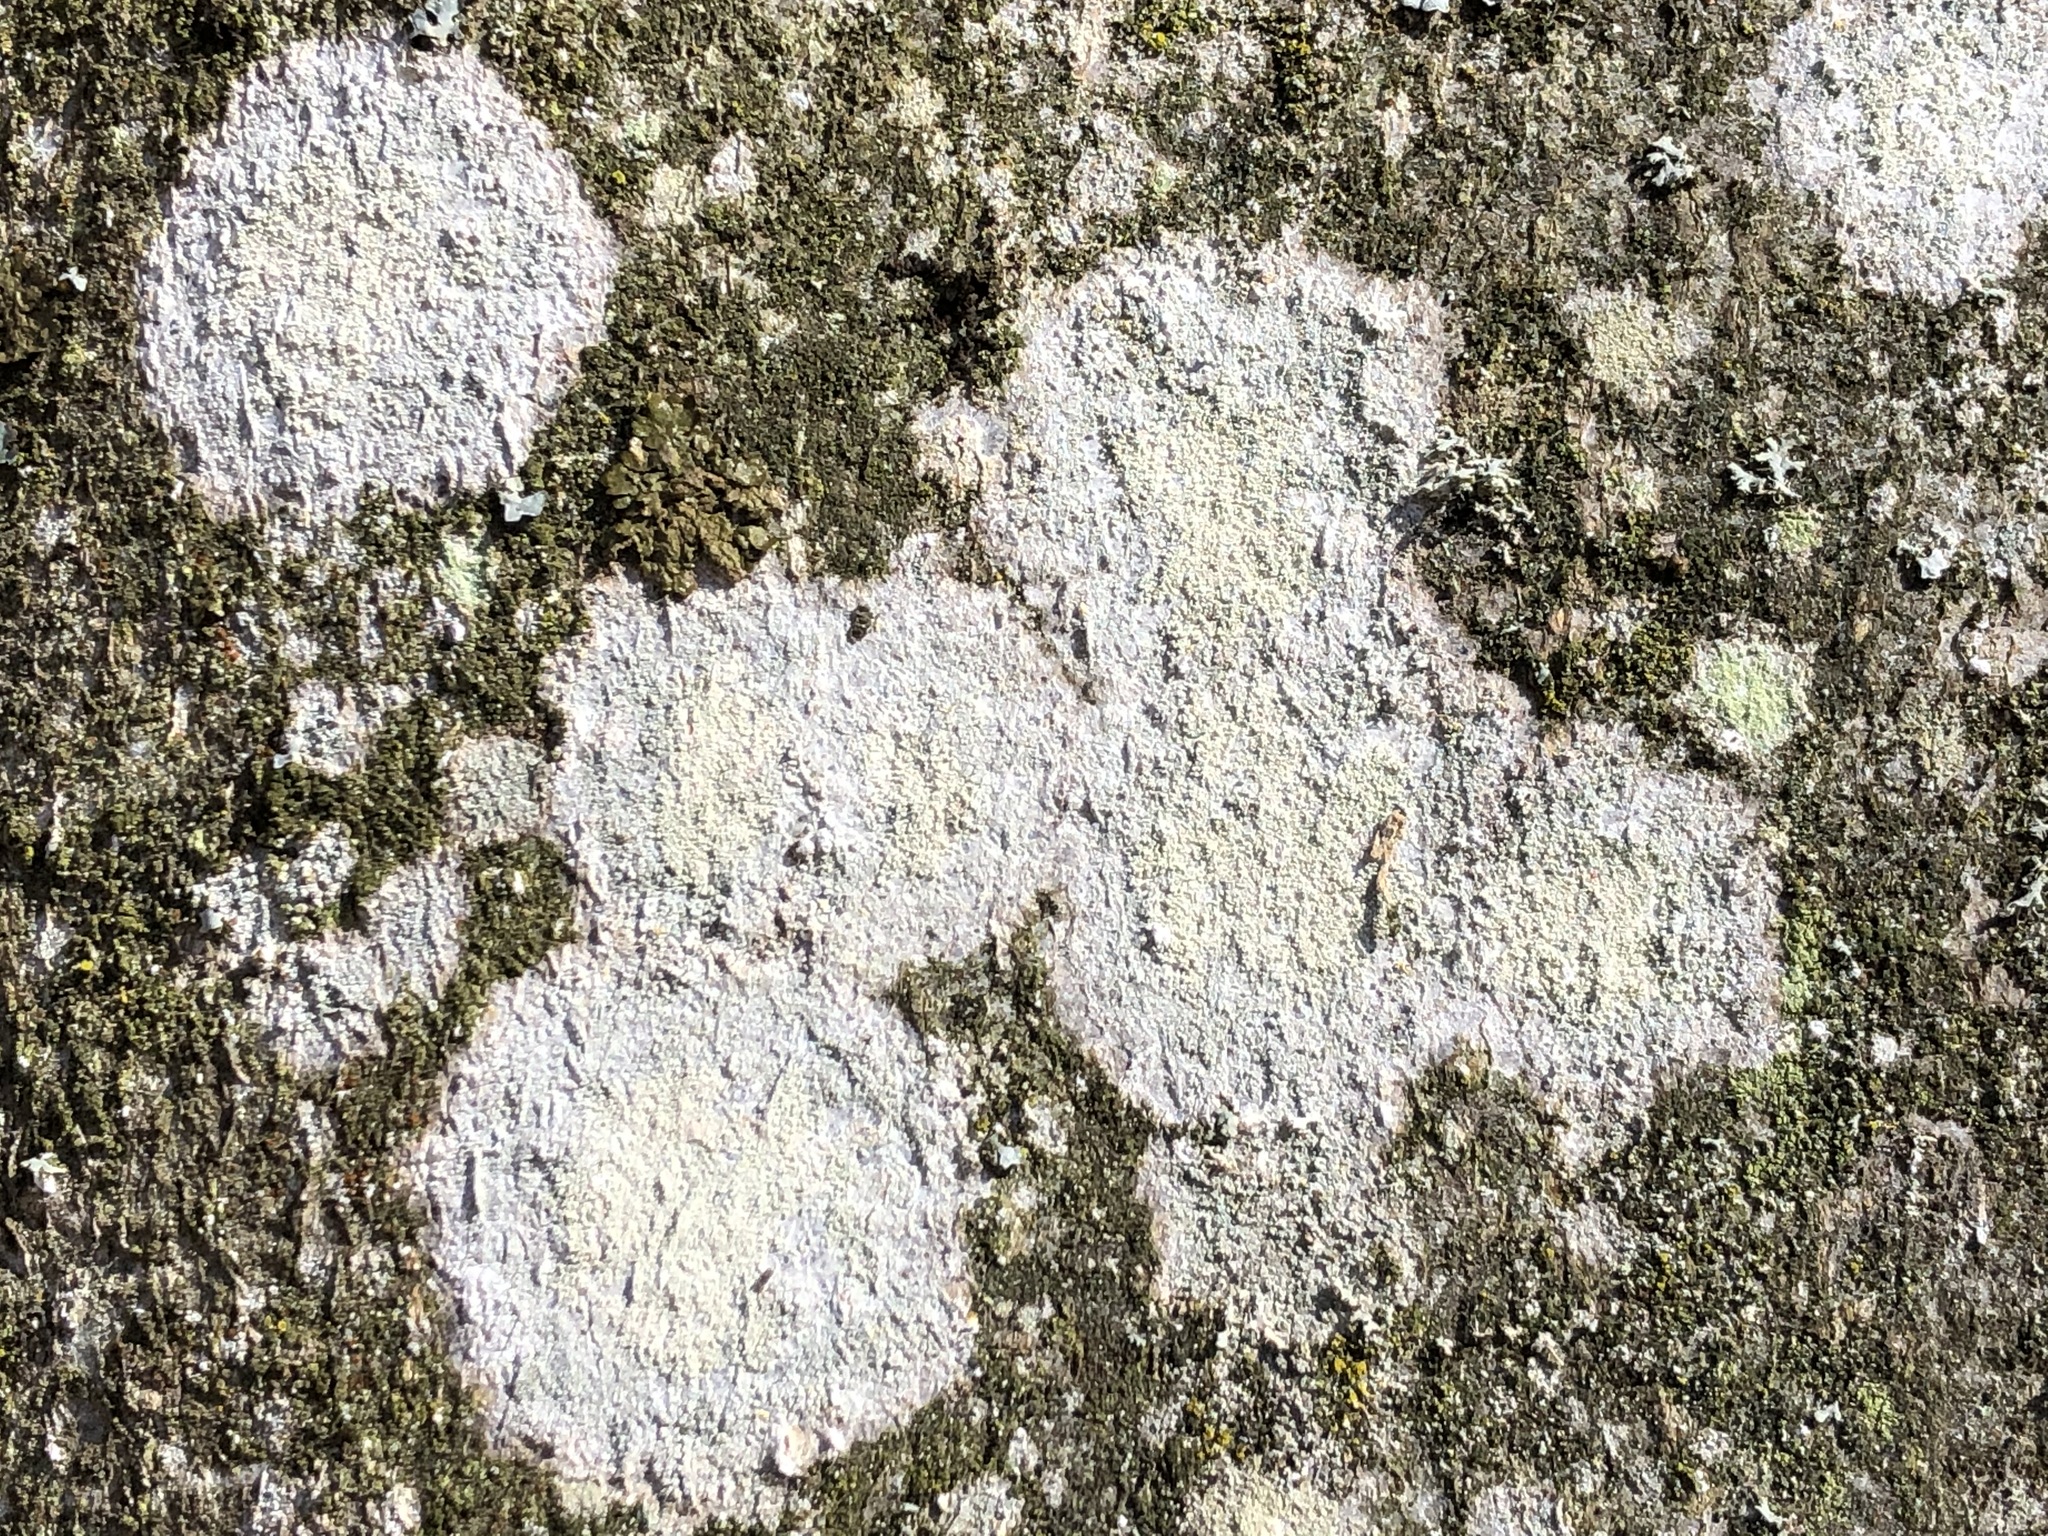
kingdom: Fungi
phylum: Ascomycota
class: Lecanoromycetes
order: Ostropales
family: Phlyctidaceae
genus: Phlyctis
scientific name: Phlyctis argena
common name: Whitewash lichen
